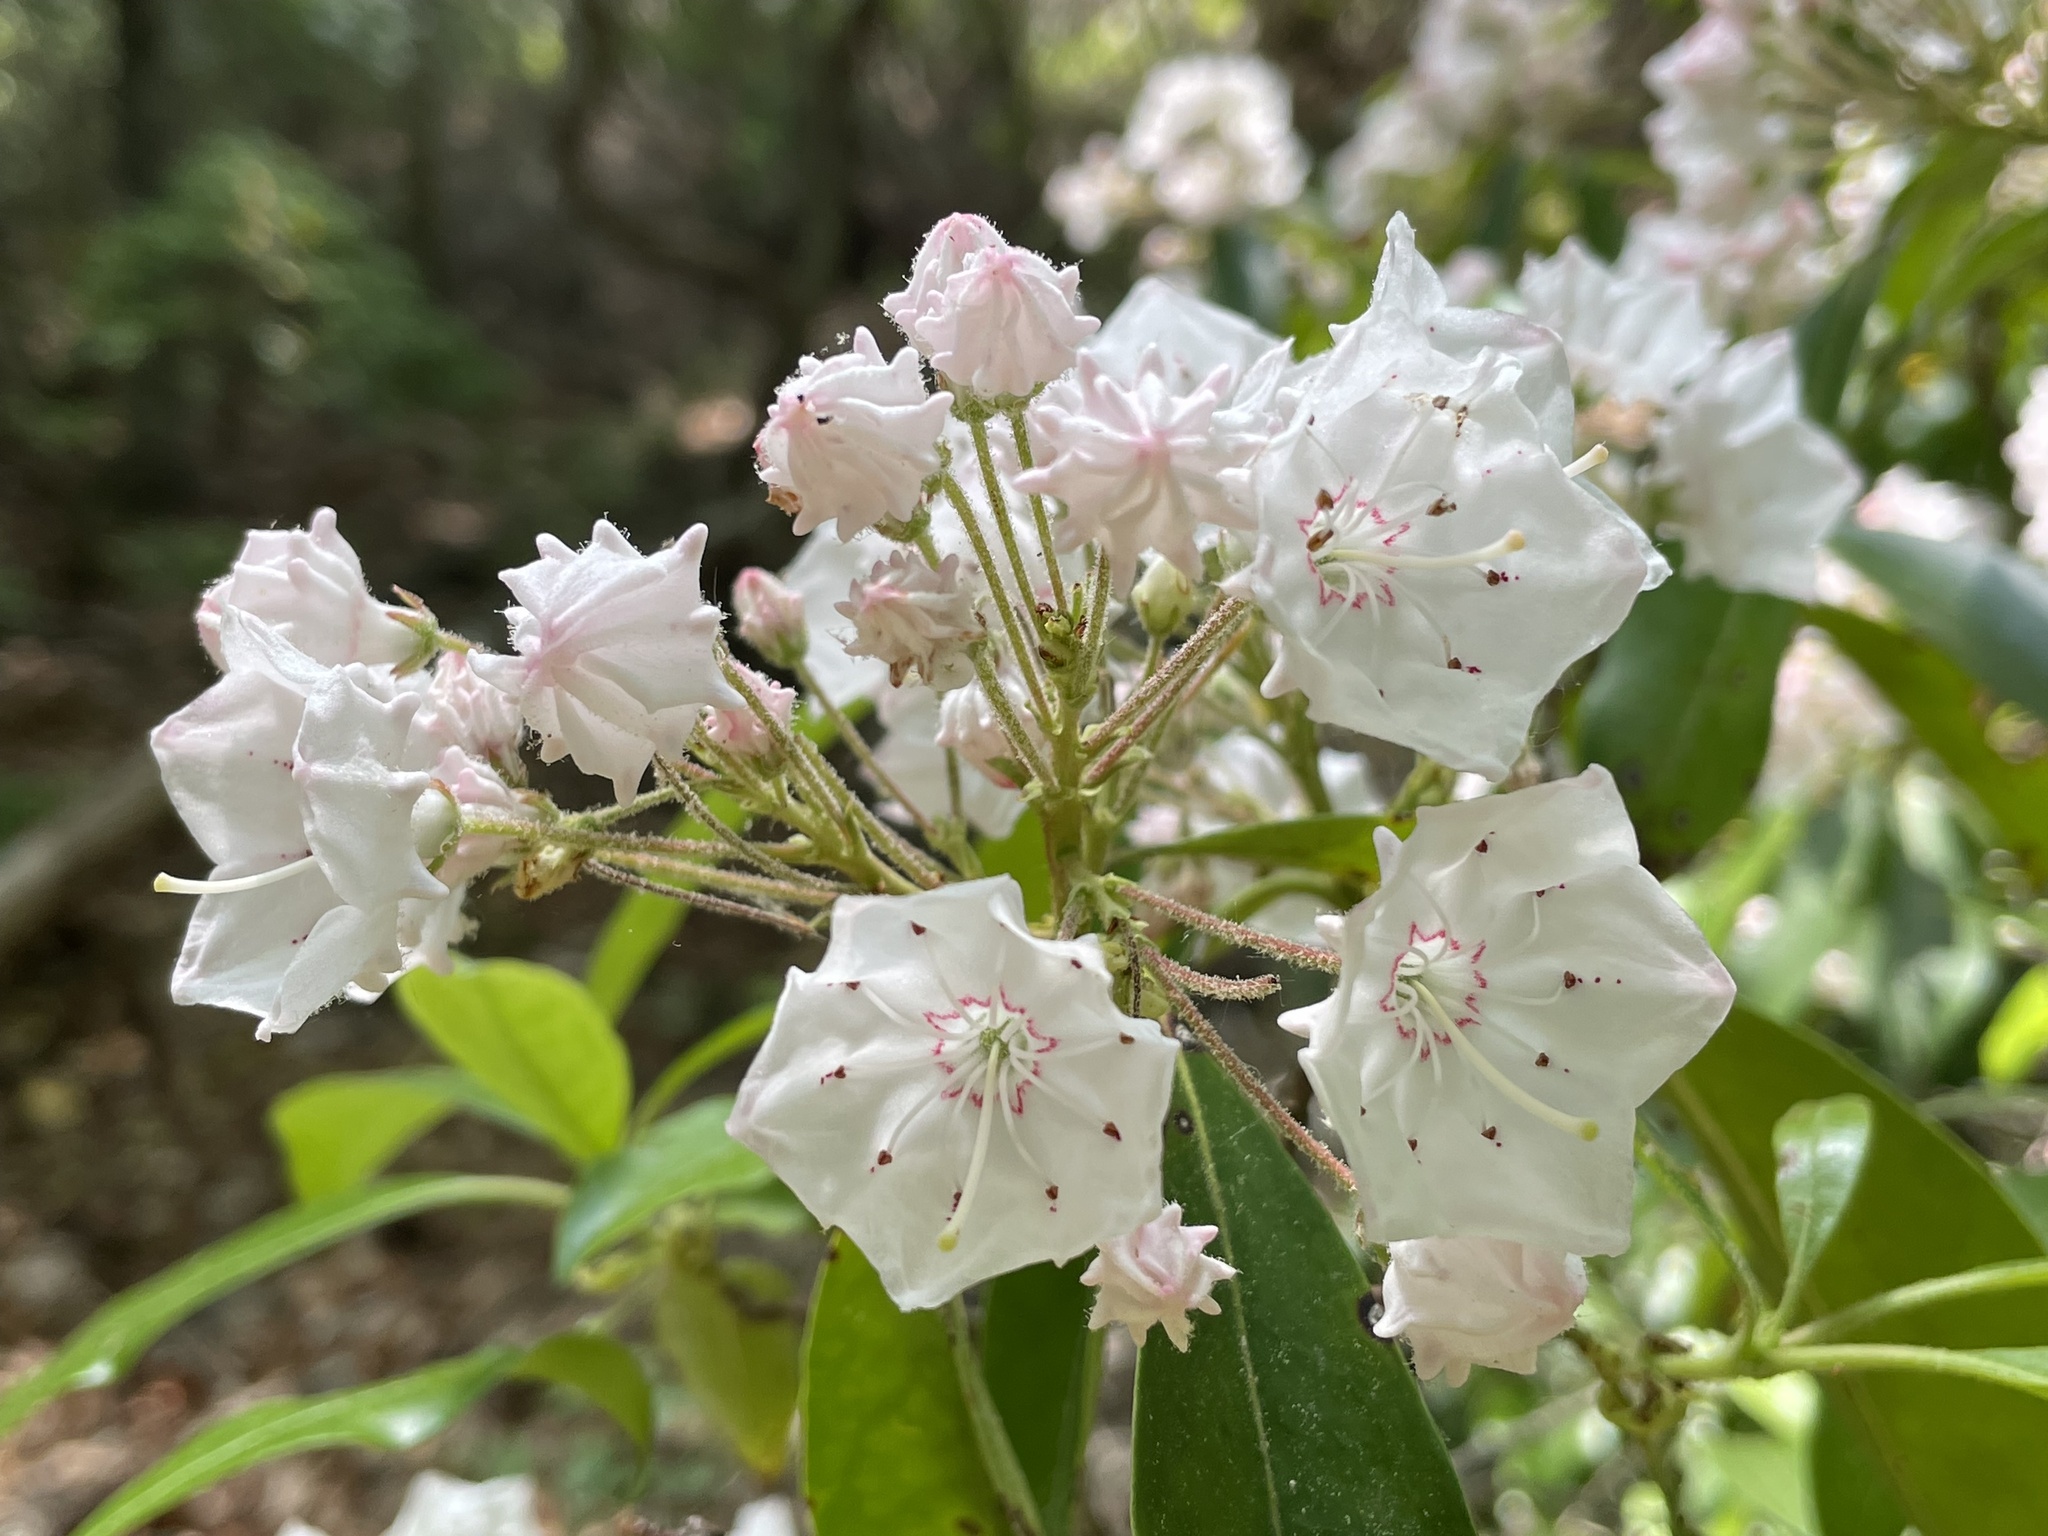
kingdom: Plantae
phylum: Tracheophyta
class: Magnoliopsida
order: Ericales
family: Ericaceae
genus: Kalmia
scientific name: Kalmia latifolia
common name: Mountain-laurel
